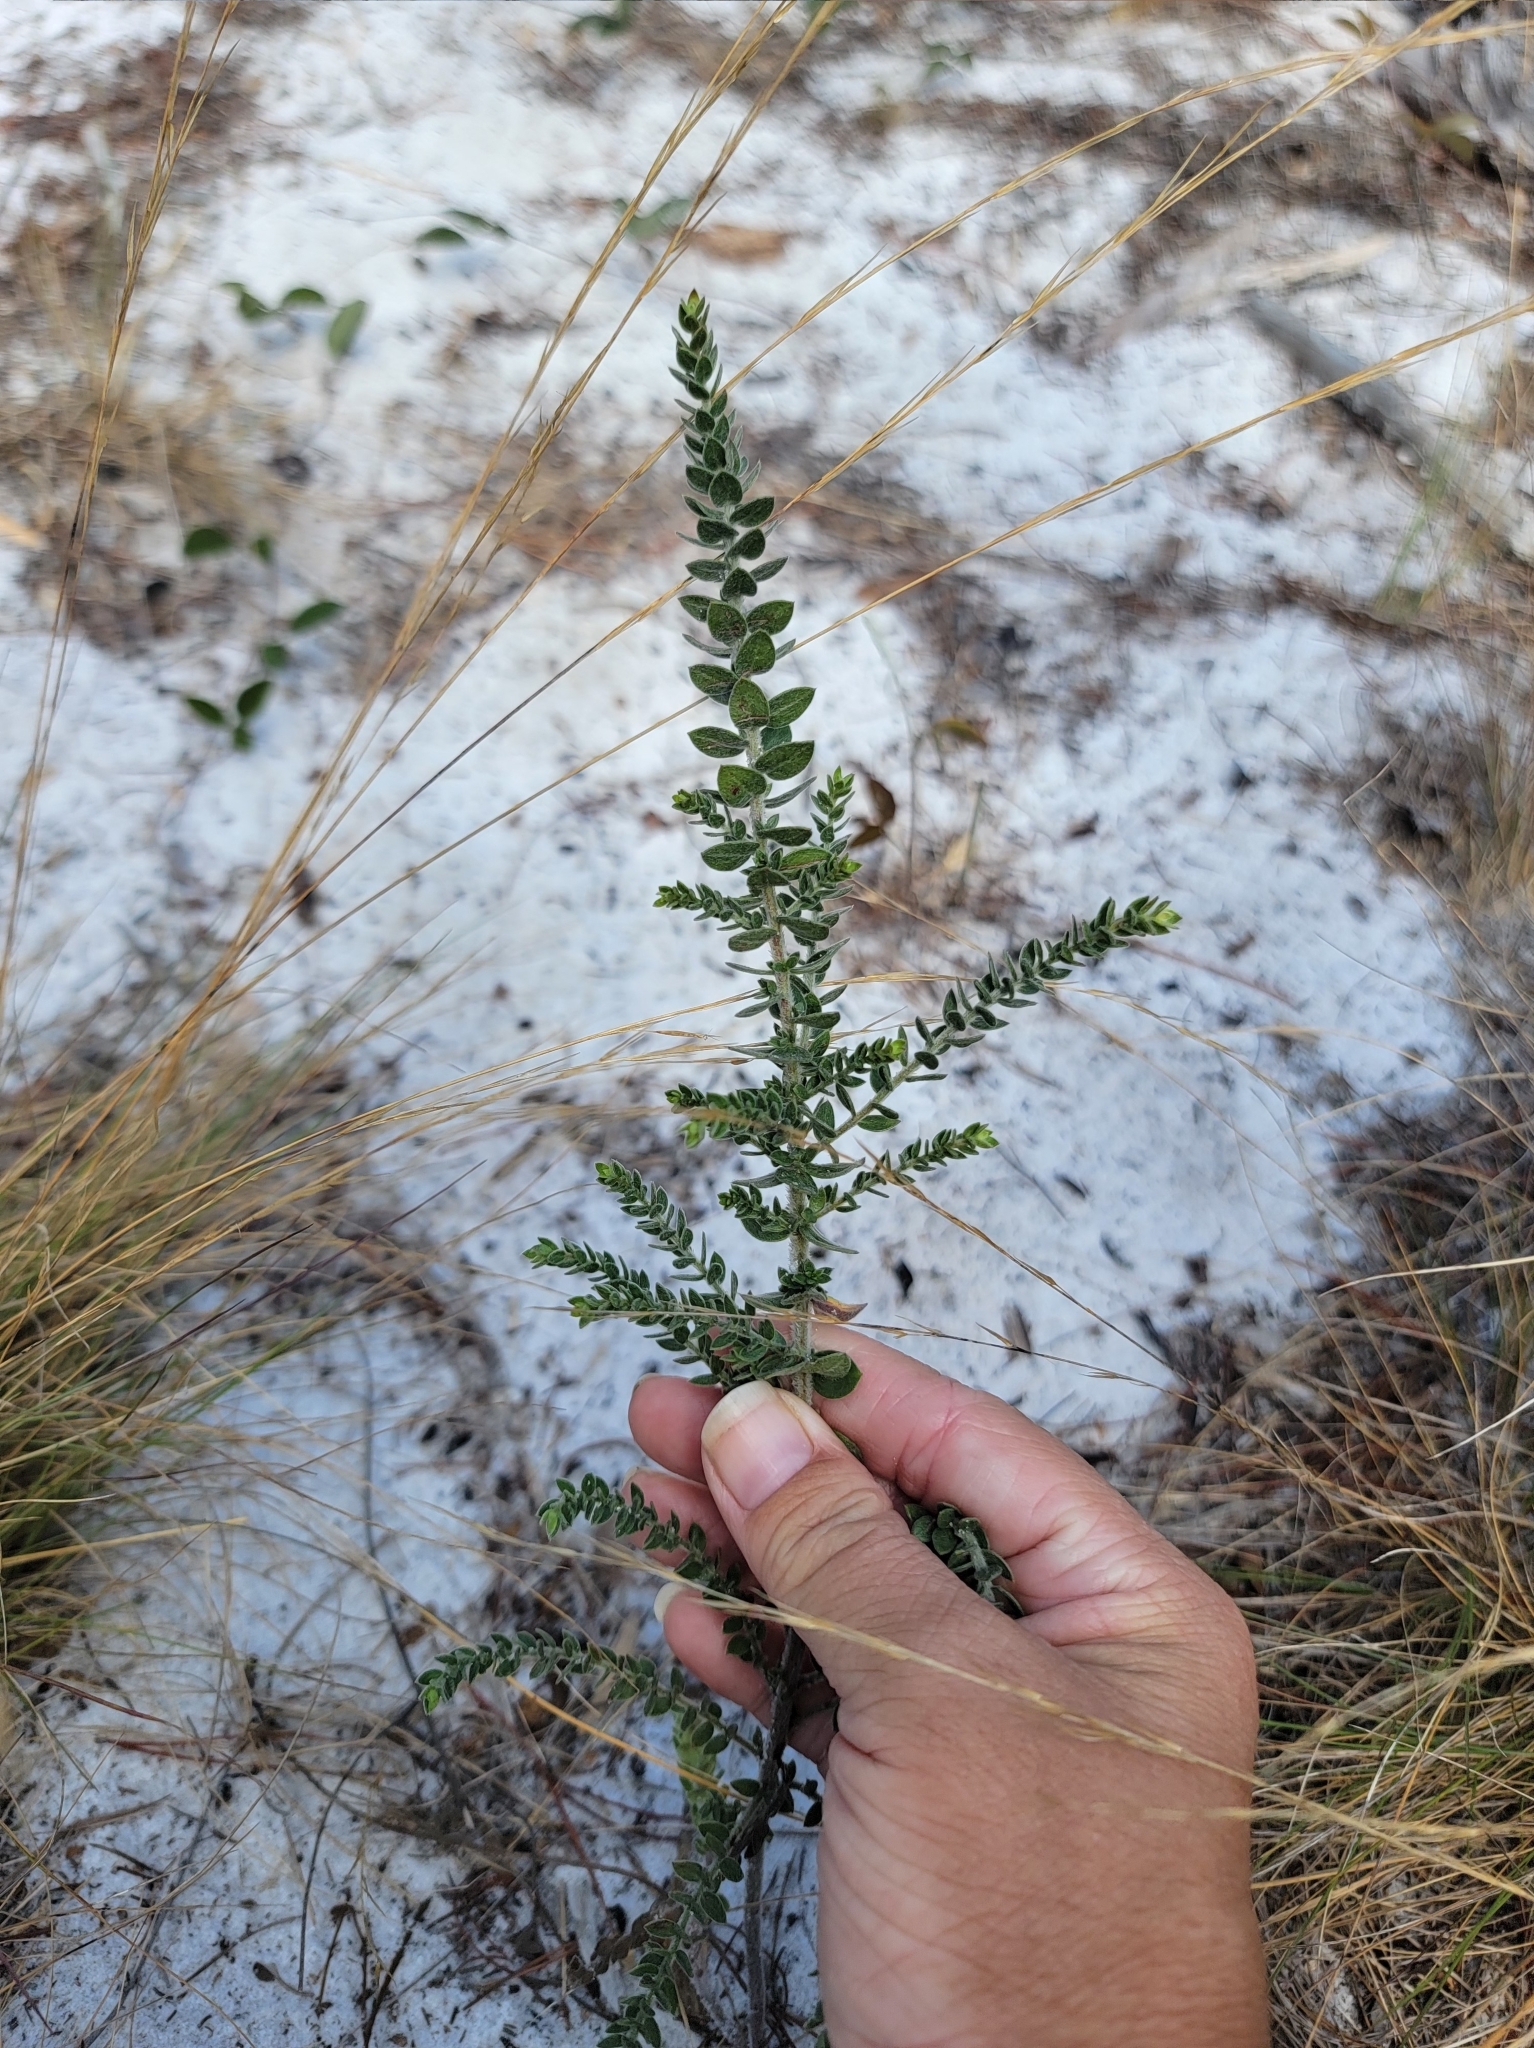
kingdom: Plantae
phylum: Tracheophyta
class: Magnoliopsida
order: Malvales
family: Cistaceae
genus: Lechea
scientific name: Lechea cernua
